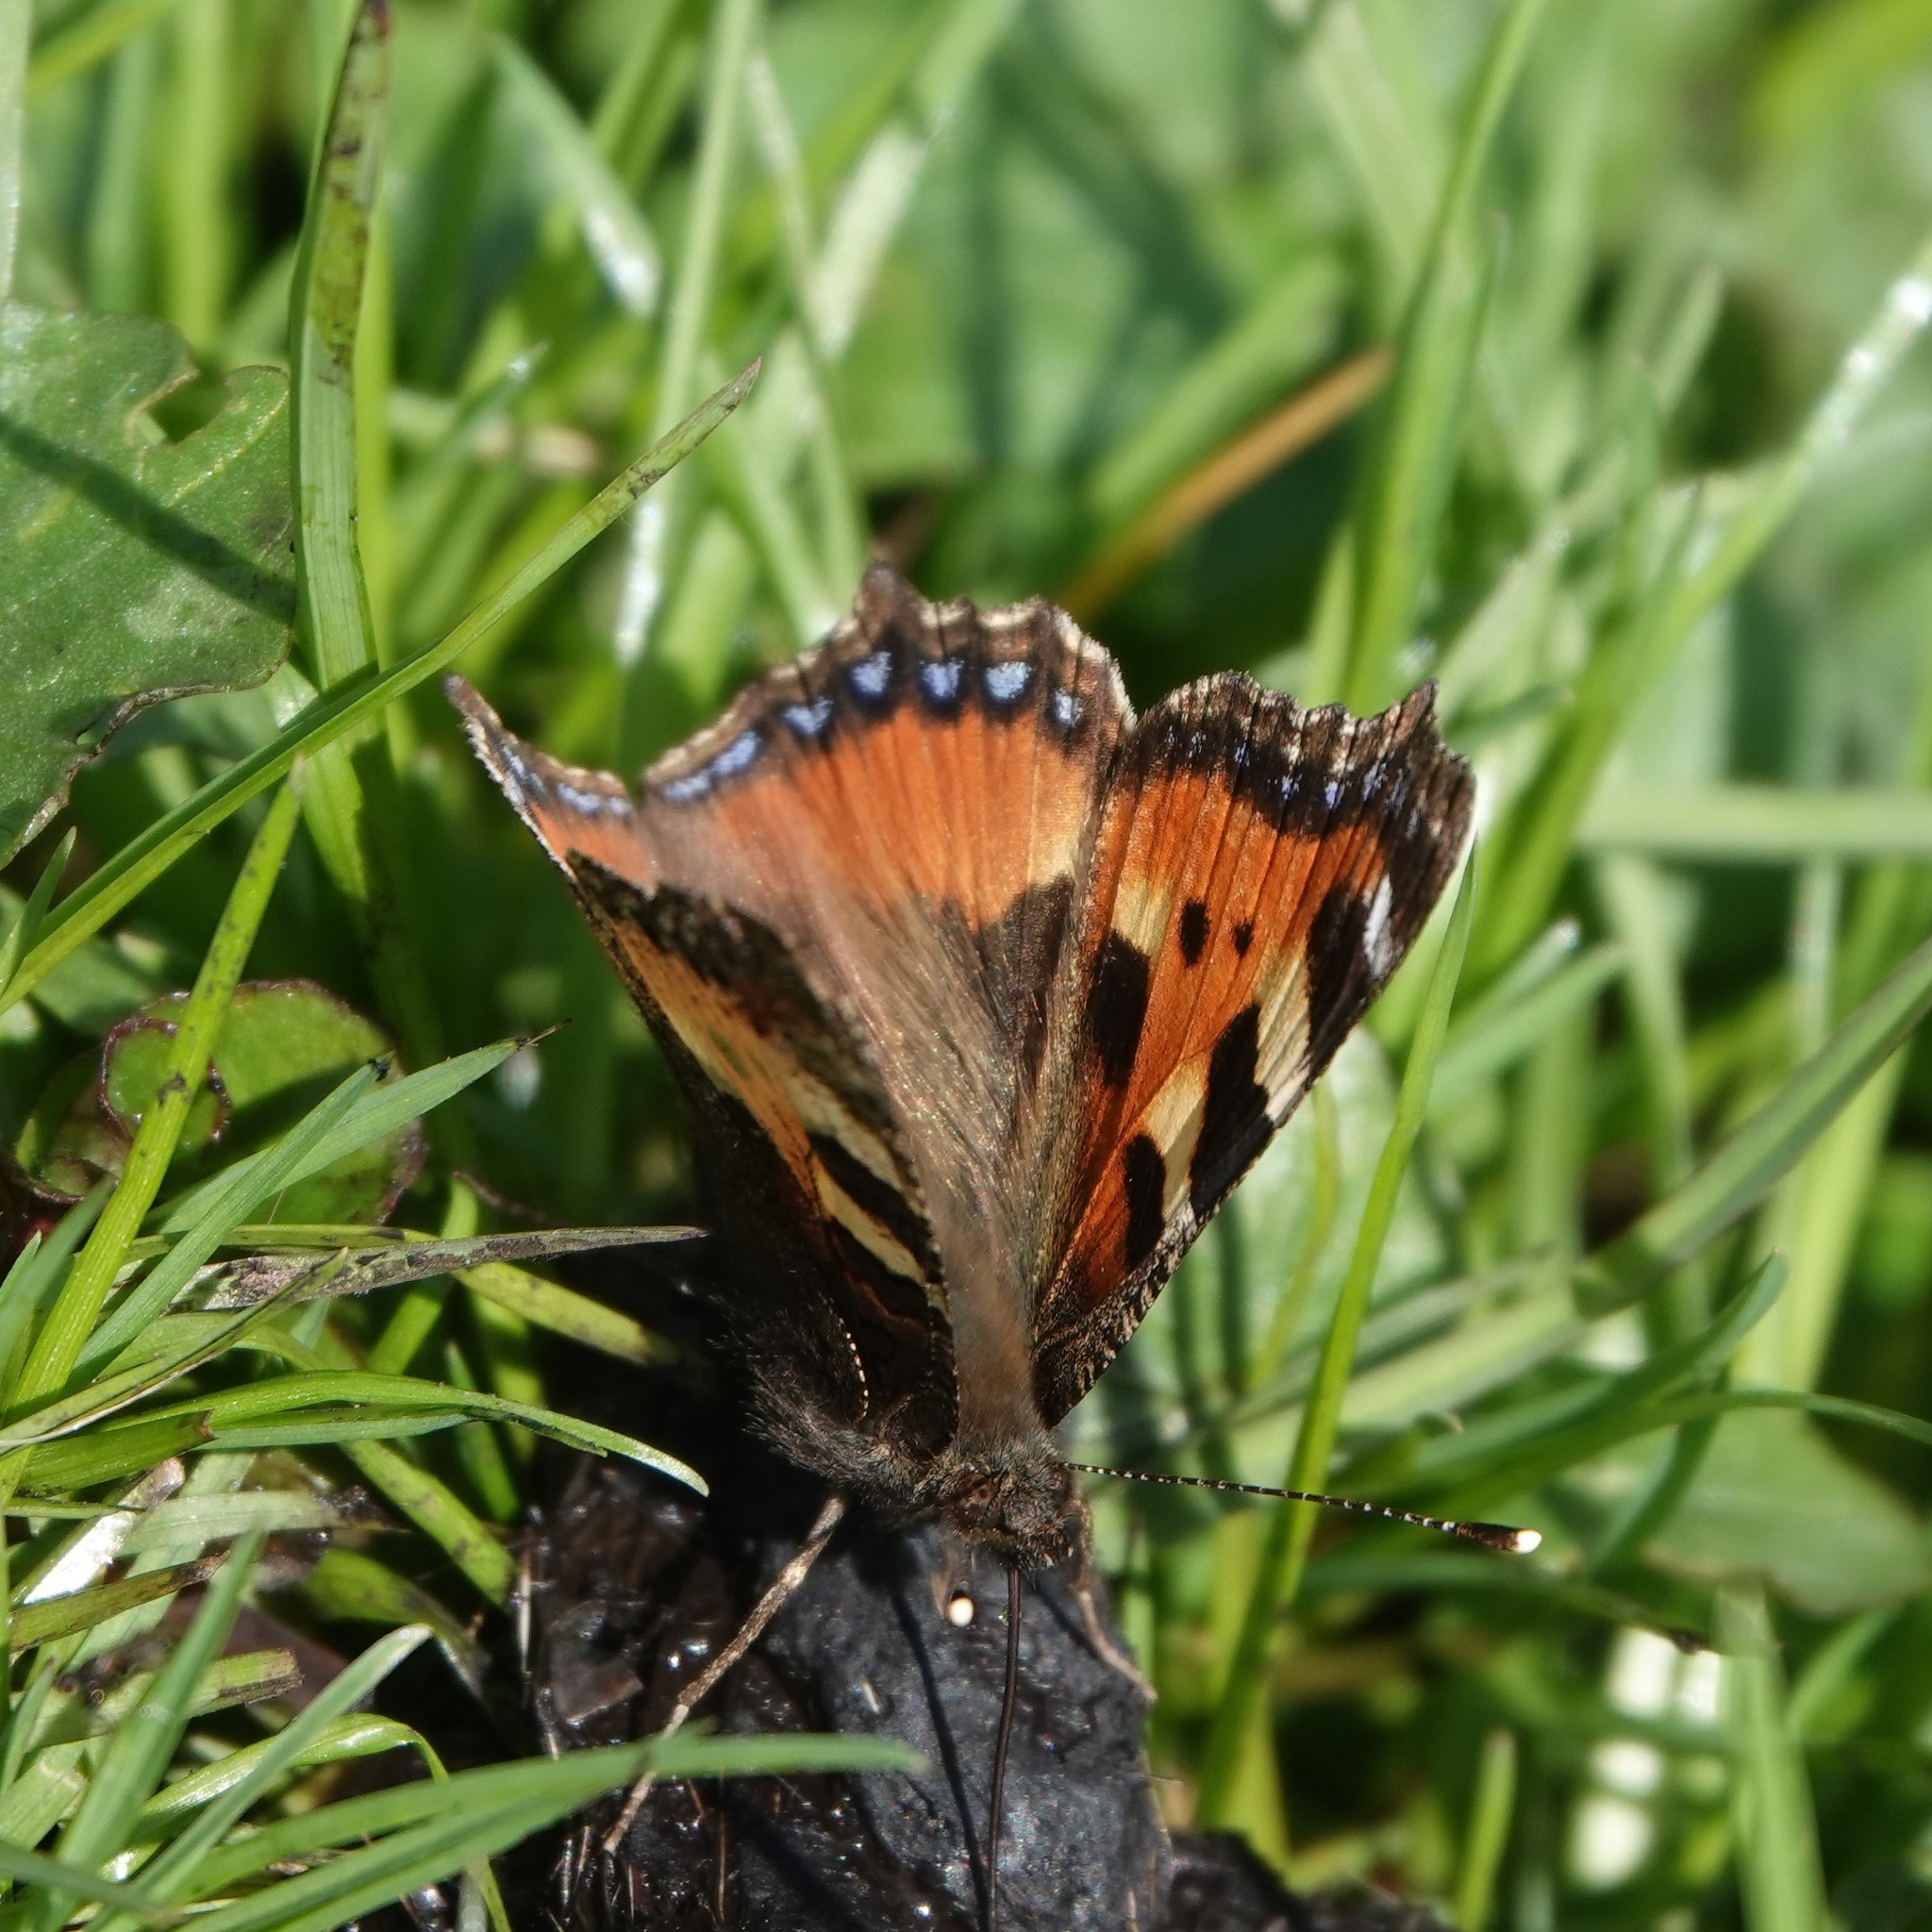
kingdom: Animalia
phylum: Arthropoda
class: Insecta
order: Lepidoptera
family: Nymphalidae
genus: Aglais
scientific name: Aglais urticae
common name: Small tortoiseshell
